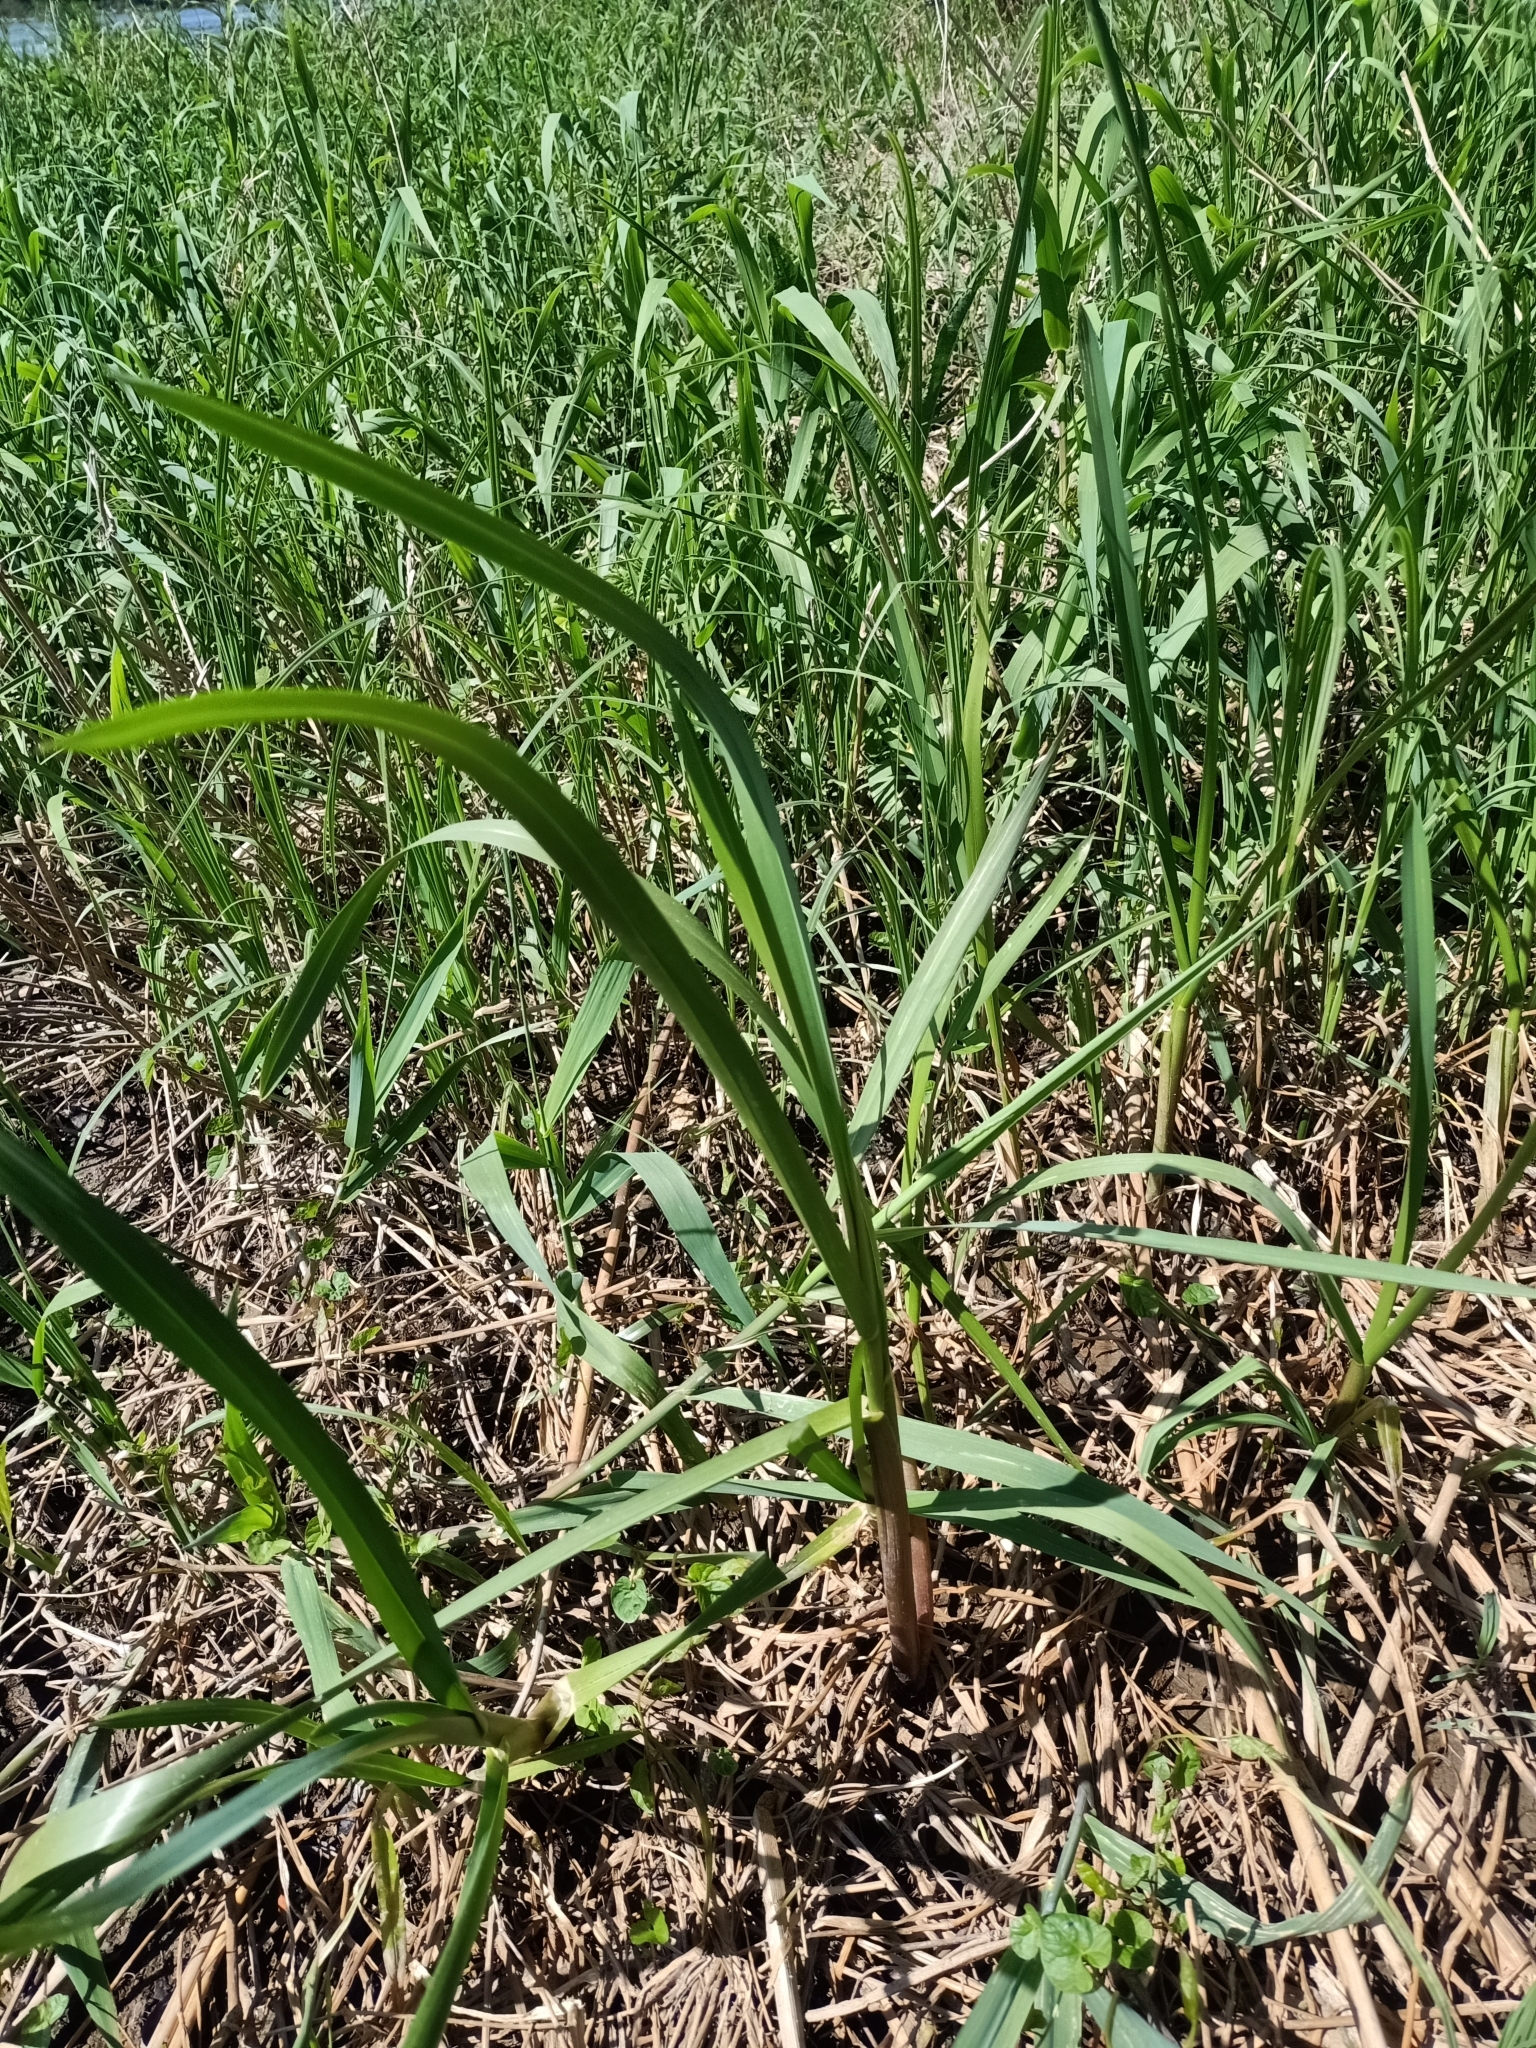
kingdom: Plantae
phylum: Tracheophyta
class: Liliopsida
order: Poales
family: Poaceae
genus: Glyceria
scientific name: Glyceria maxima
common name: Reed mannagrass
